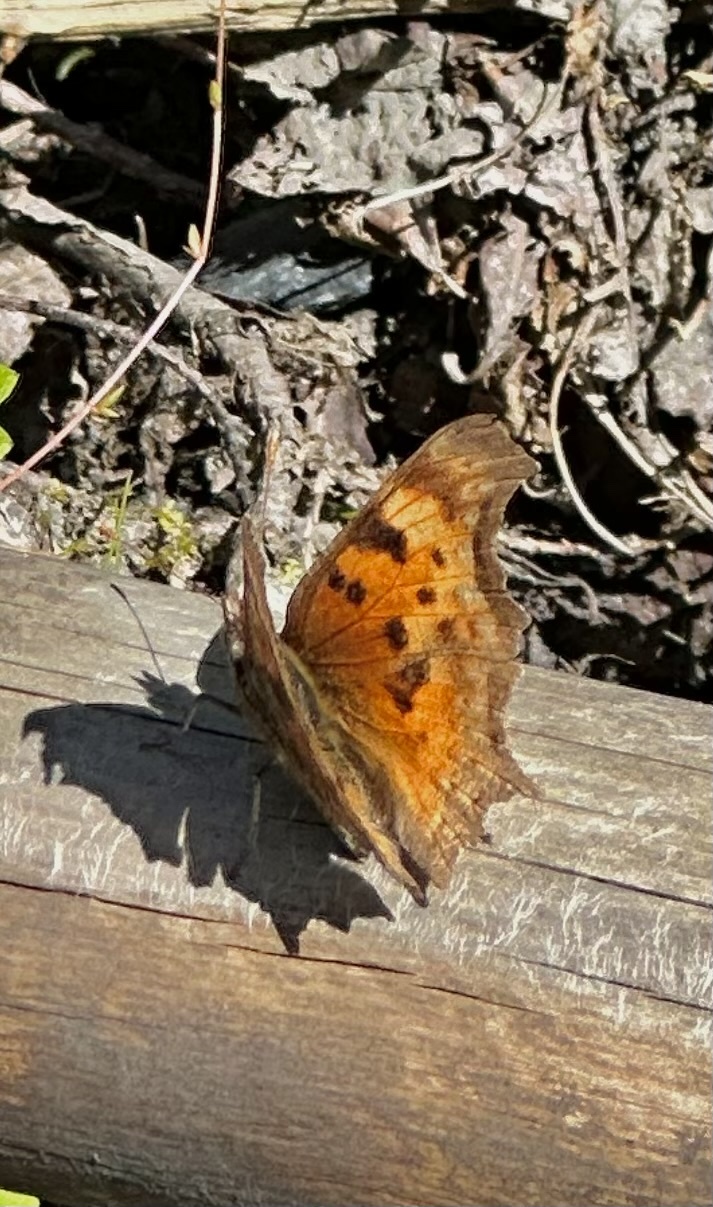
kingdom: Animalia
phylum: Arthropoda
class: Insecta
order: Lepidoptera
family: Nymphalidae
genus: Polygonia
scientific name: Polygonia gracilis
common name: Hoary comma
